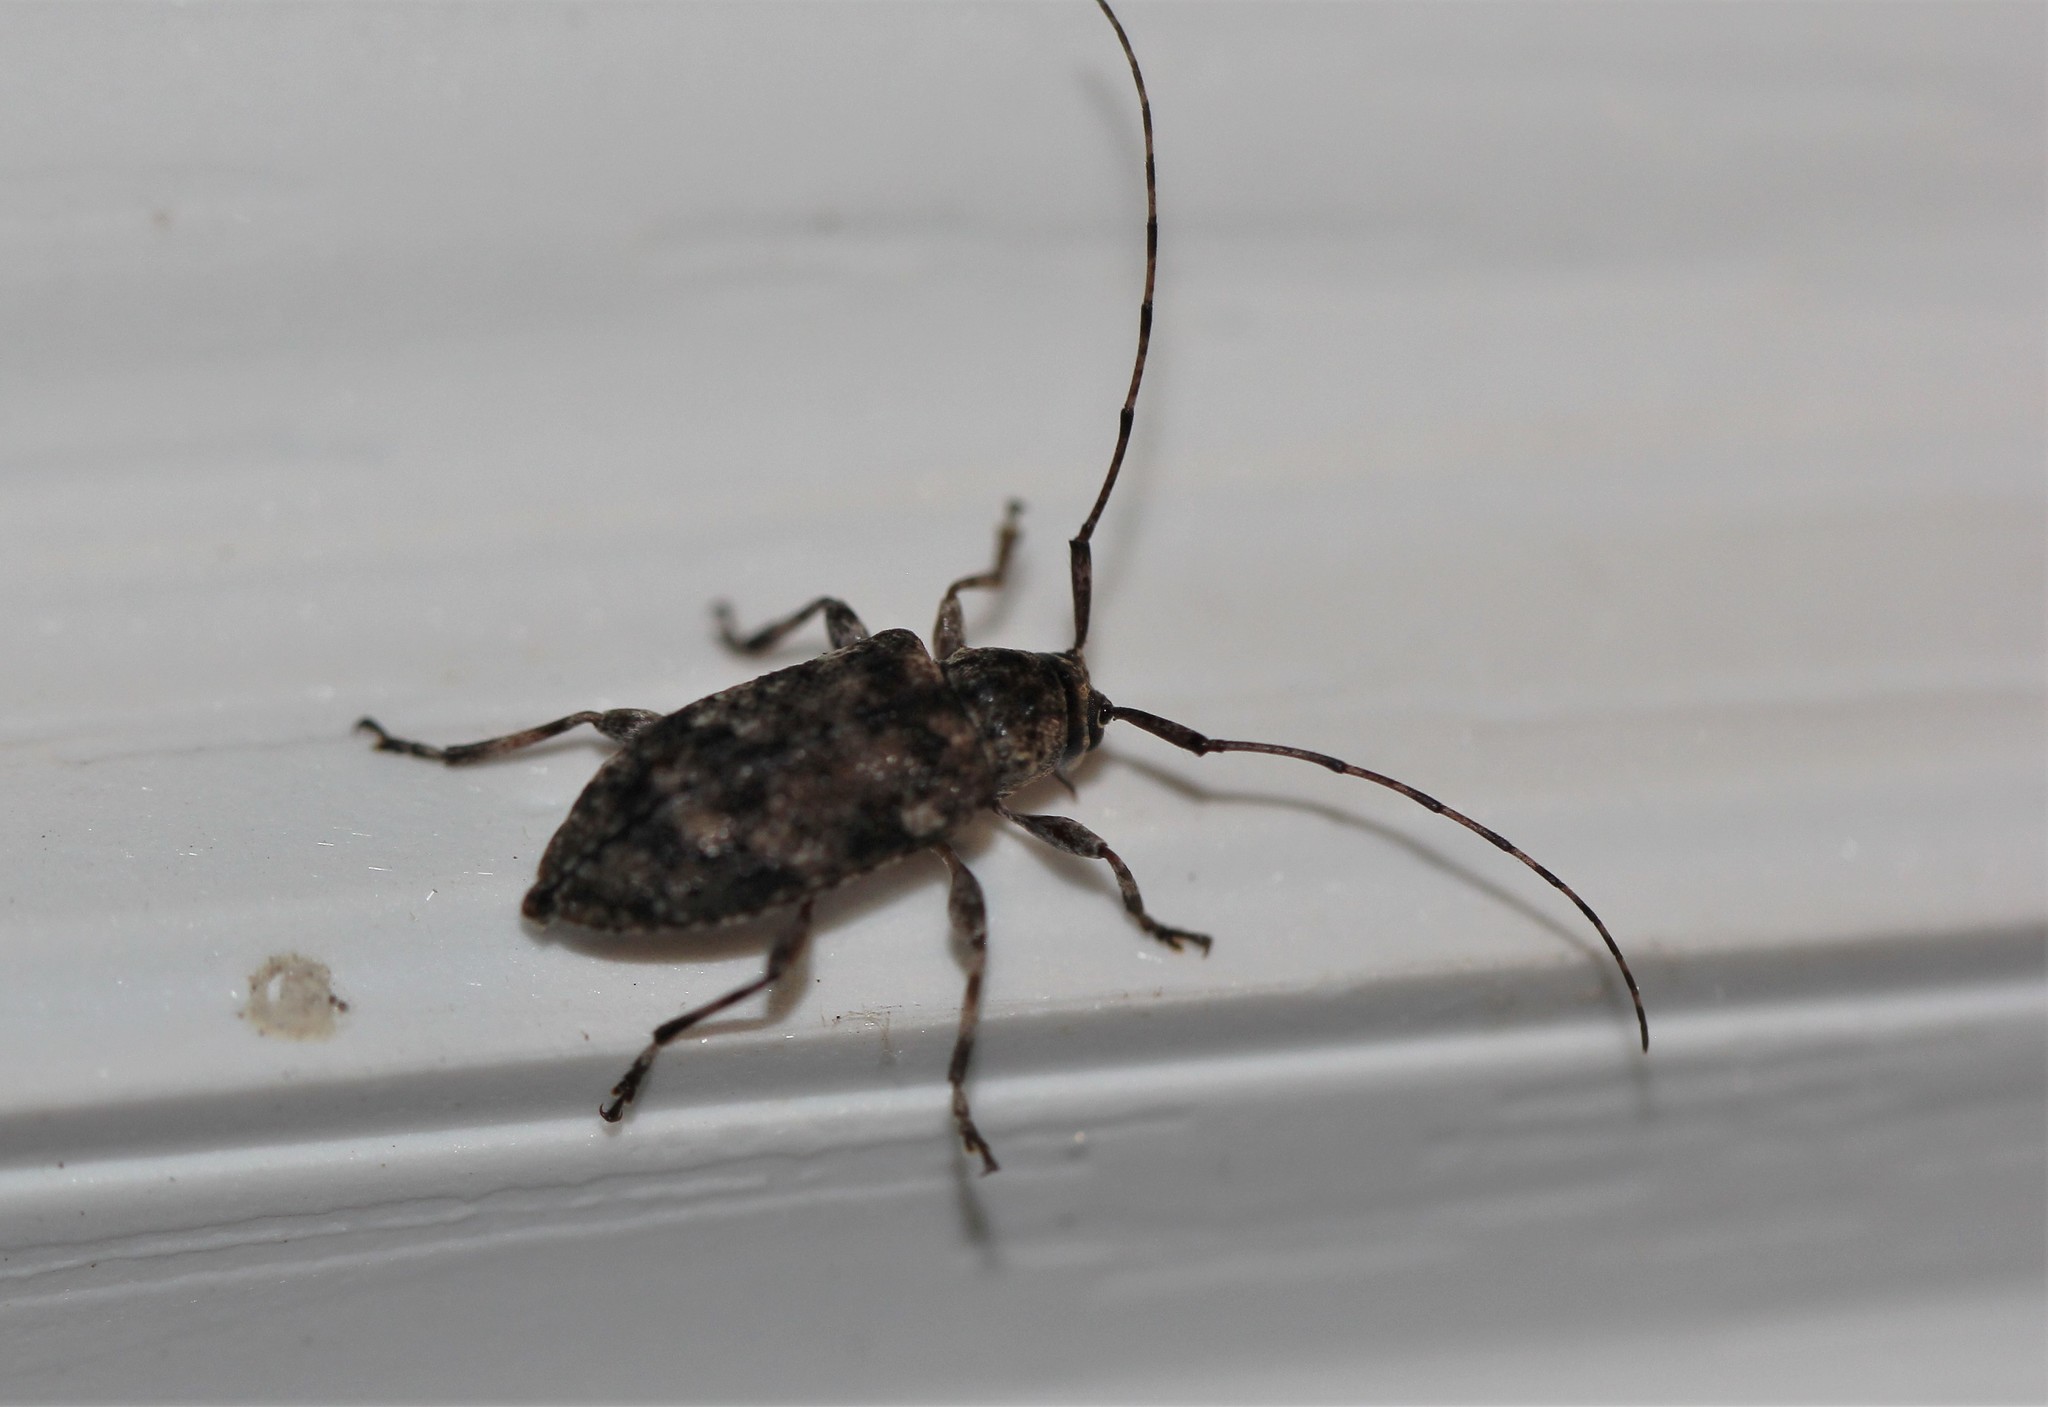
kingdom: Animalia
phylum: Arthropoda
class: Insecta
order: Coleoptera
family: Cerambycidae
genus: Astylopsis
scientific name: Astylopsis sexguttata
